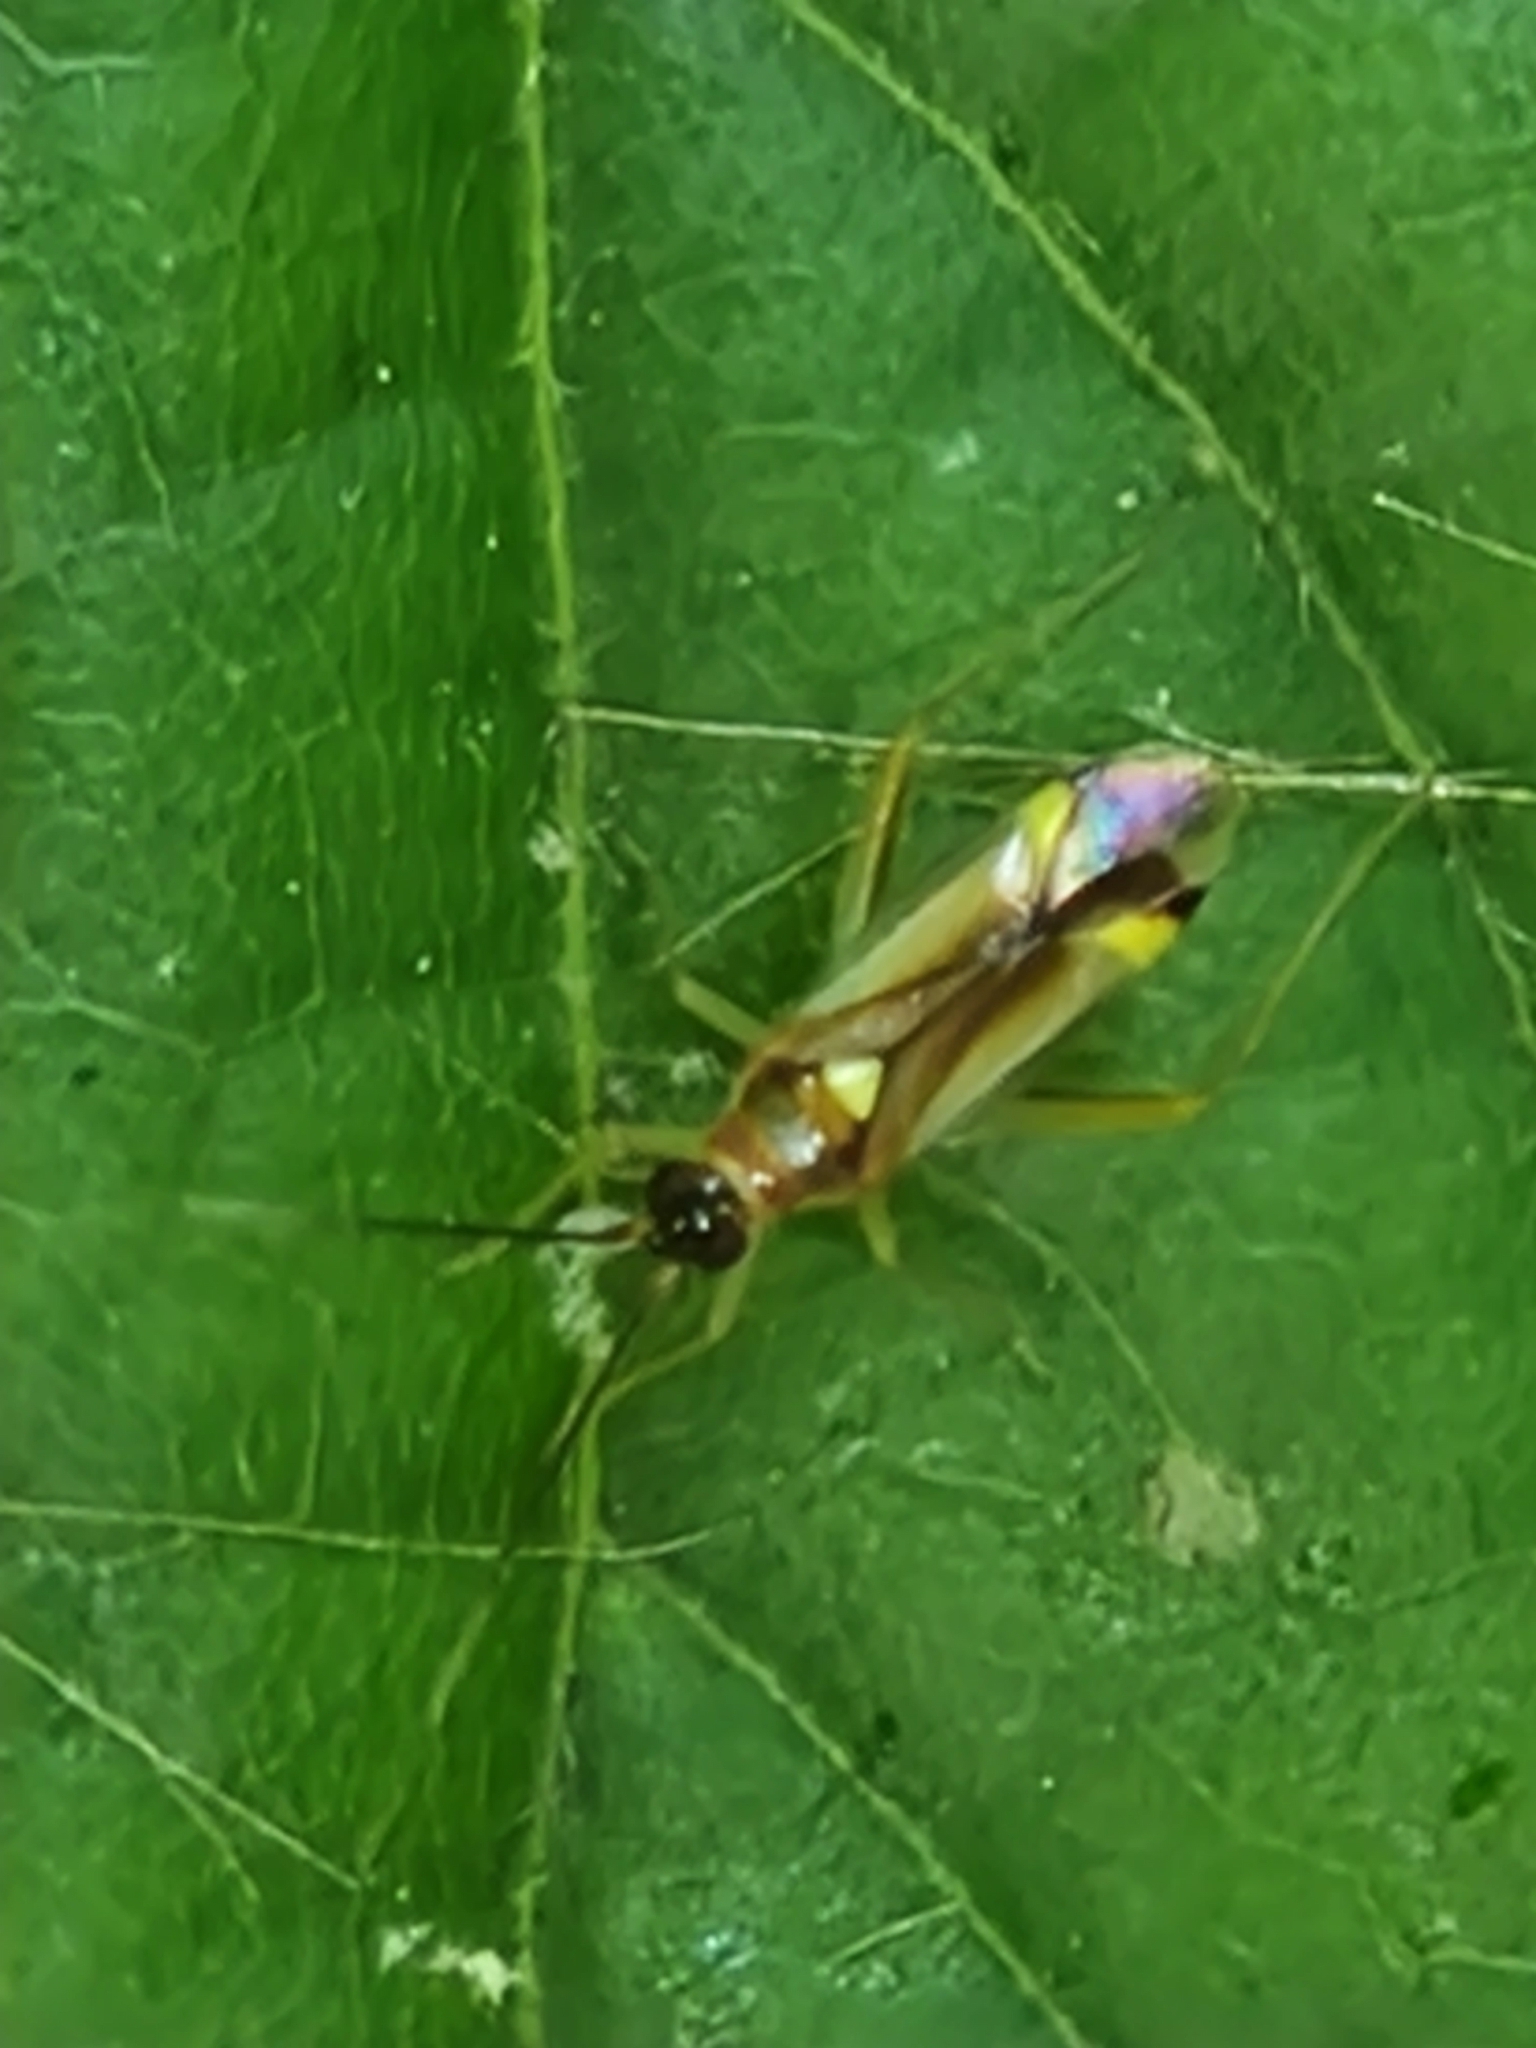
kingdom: Animalia
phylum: Arthropoda
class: Insecta
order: Hemiptera
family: Miridae
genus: Campyloneura
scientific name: Campyloneura virgula
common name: Predatory bug
